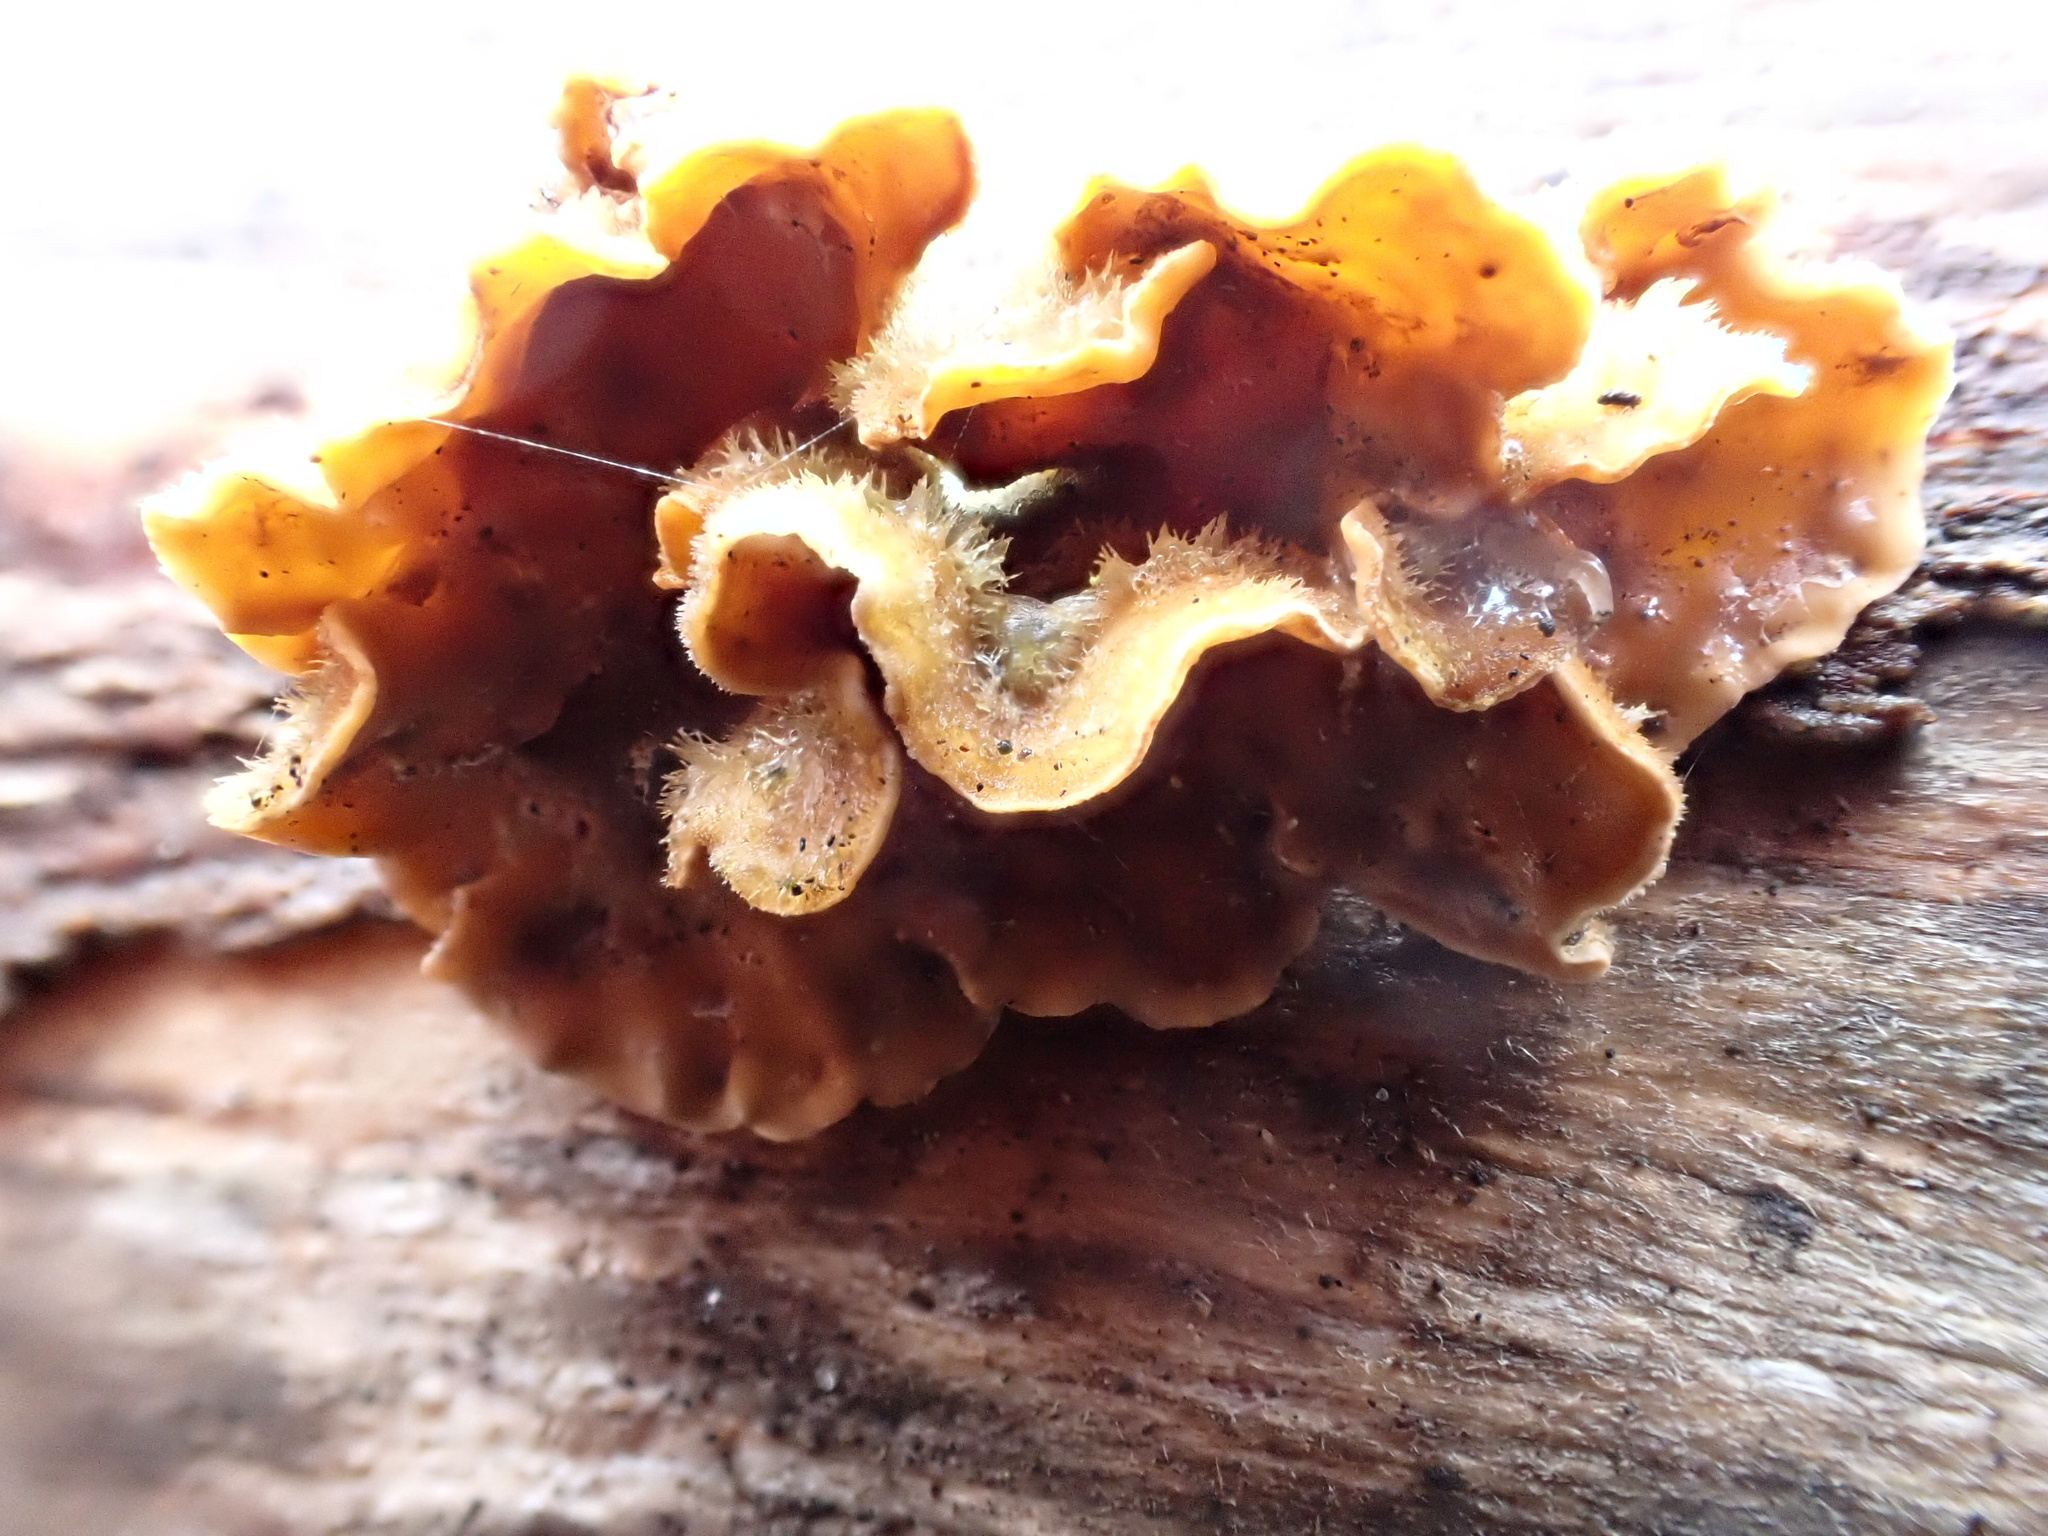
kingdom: Fungi
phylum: Basidiomycota
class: Agaricomycetes
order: Russulales
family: Stereaceae
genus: Stereum
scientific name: Stereum hirsutum
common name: Hairy curtain crust
